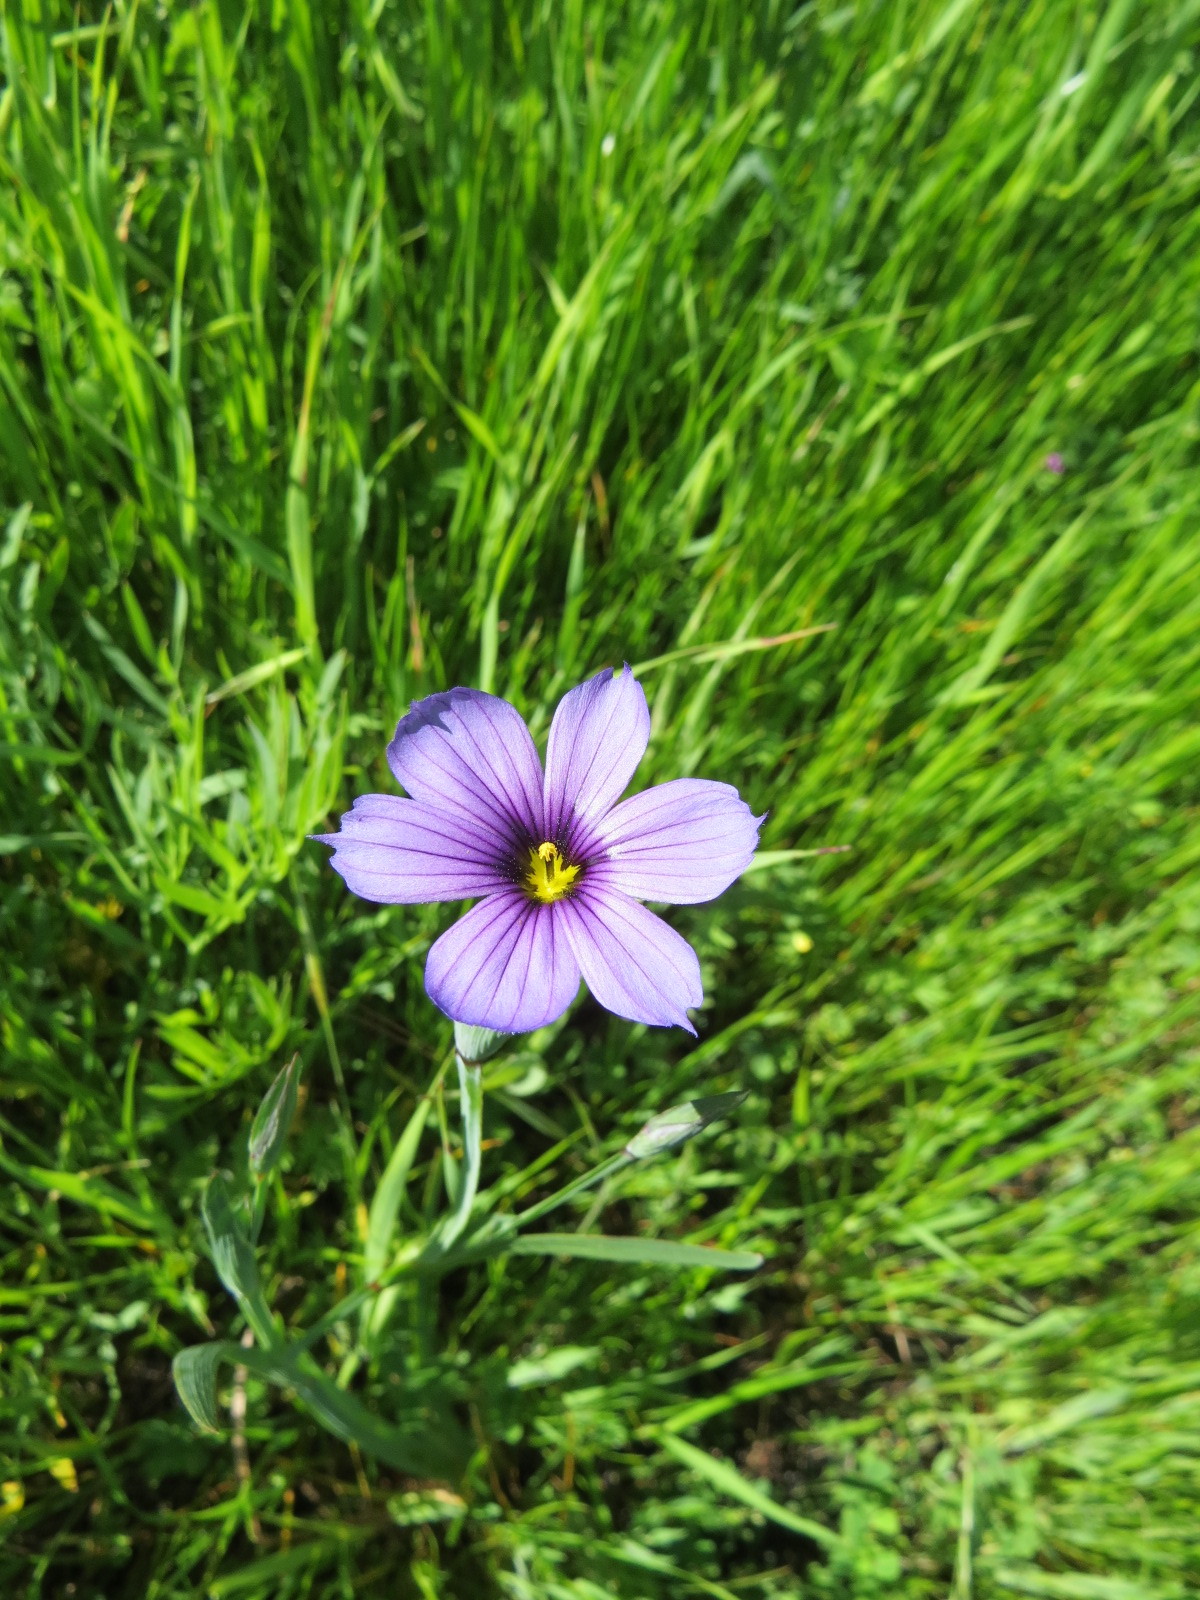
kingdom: Plantae
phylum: Tracheophyta
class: Liliopsida
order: Asparagales
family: Iridaceae
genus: Sisyrinchium
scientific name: Sisyrinchium bellum
